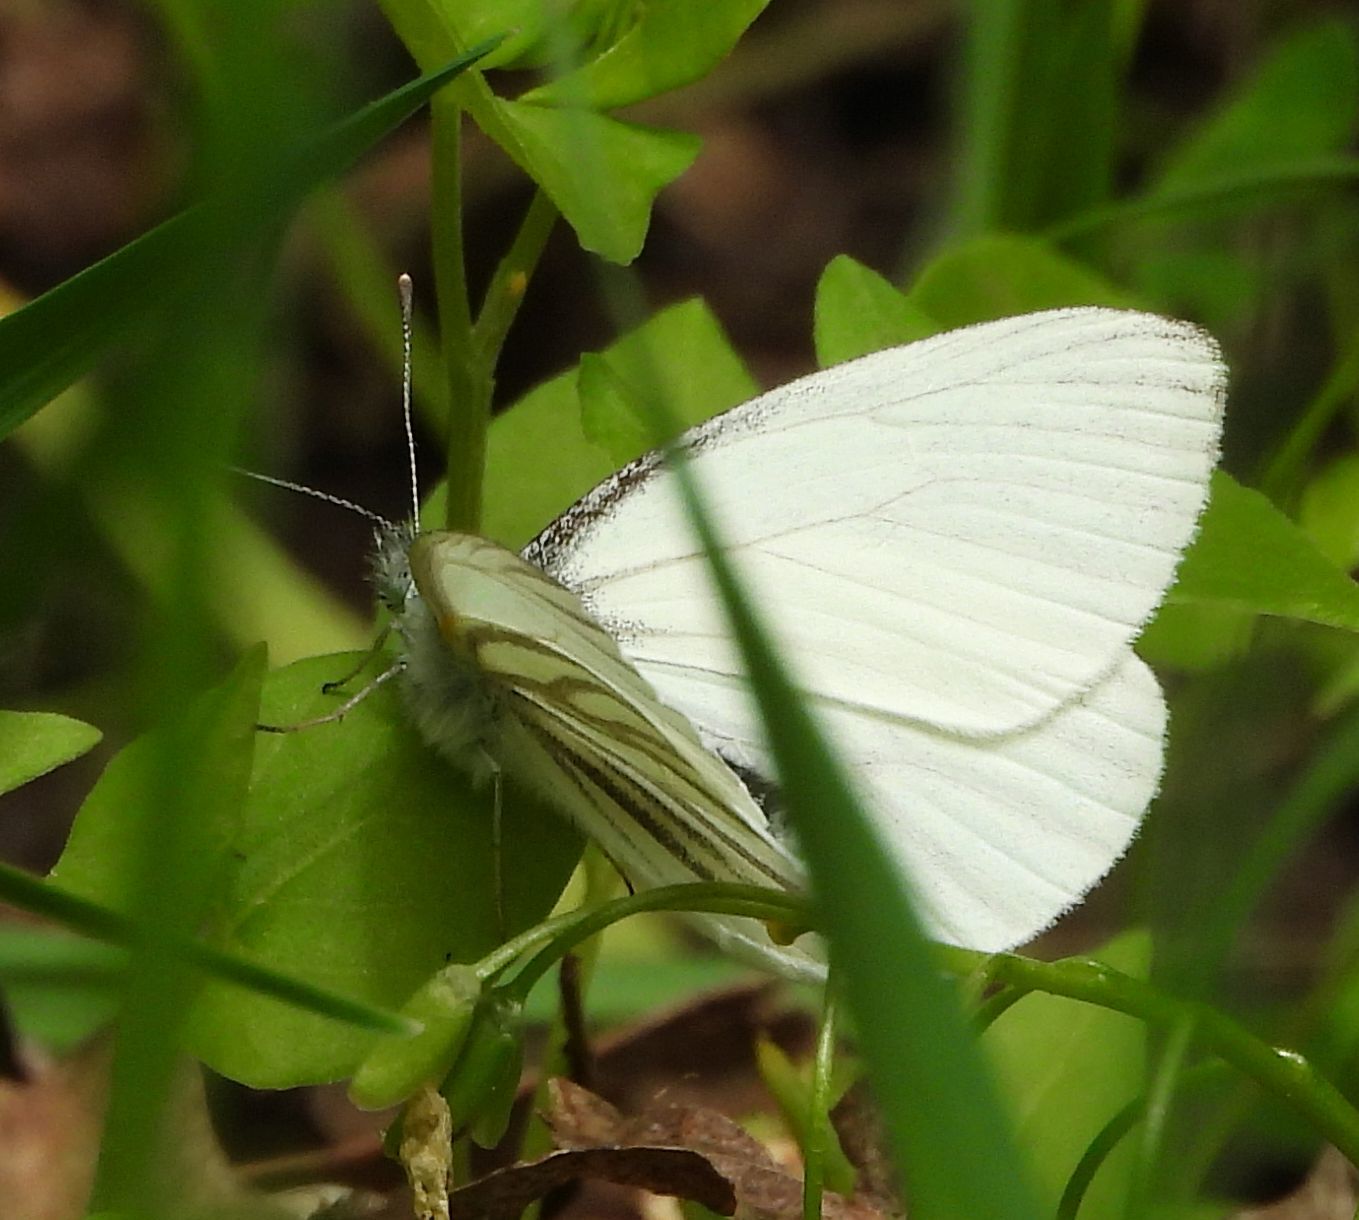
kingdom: Animalia
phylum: Arthropoda
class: Insecta
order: Lepidoptera
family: Pieridae
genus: Pieris
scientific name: Pieris oleracea
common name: Mustard white
